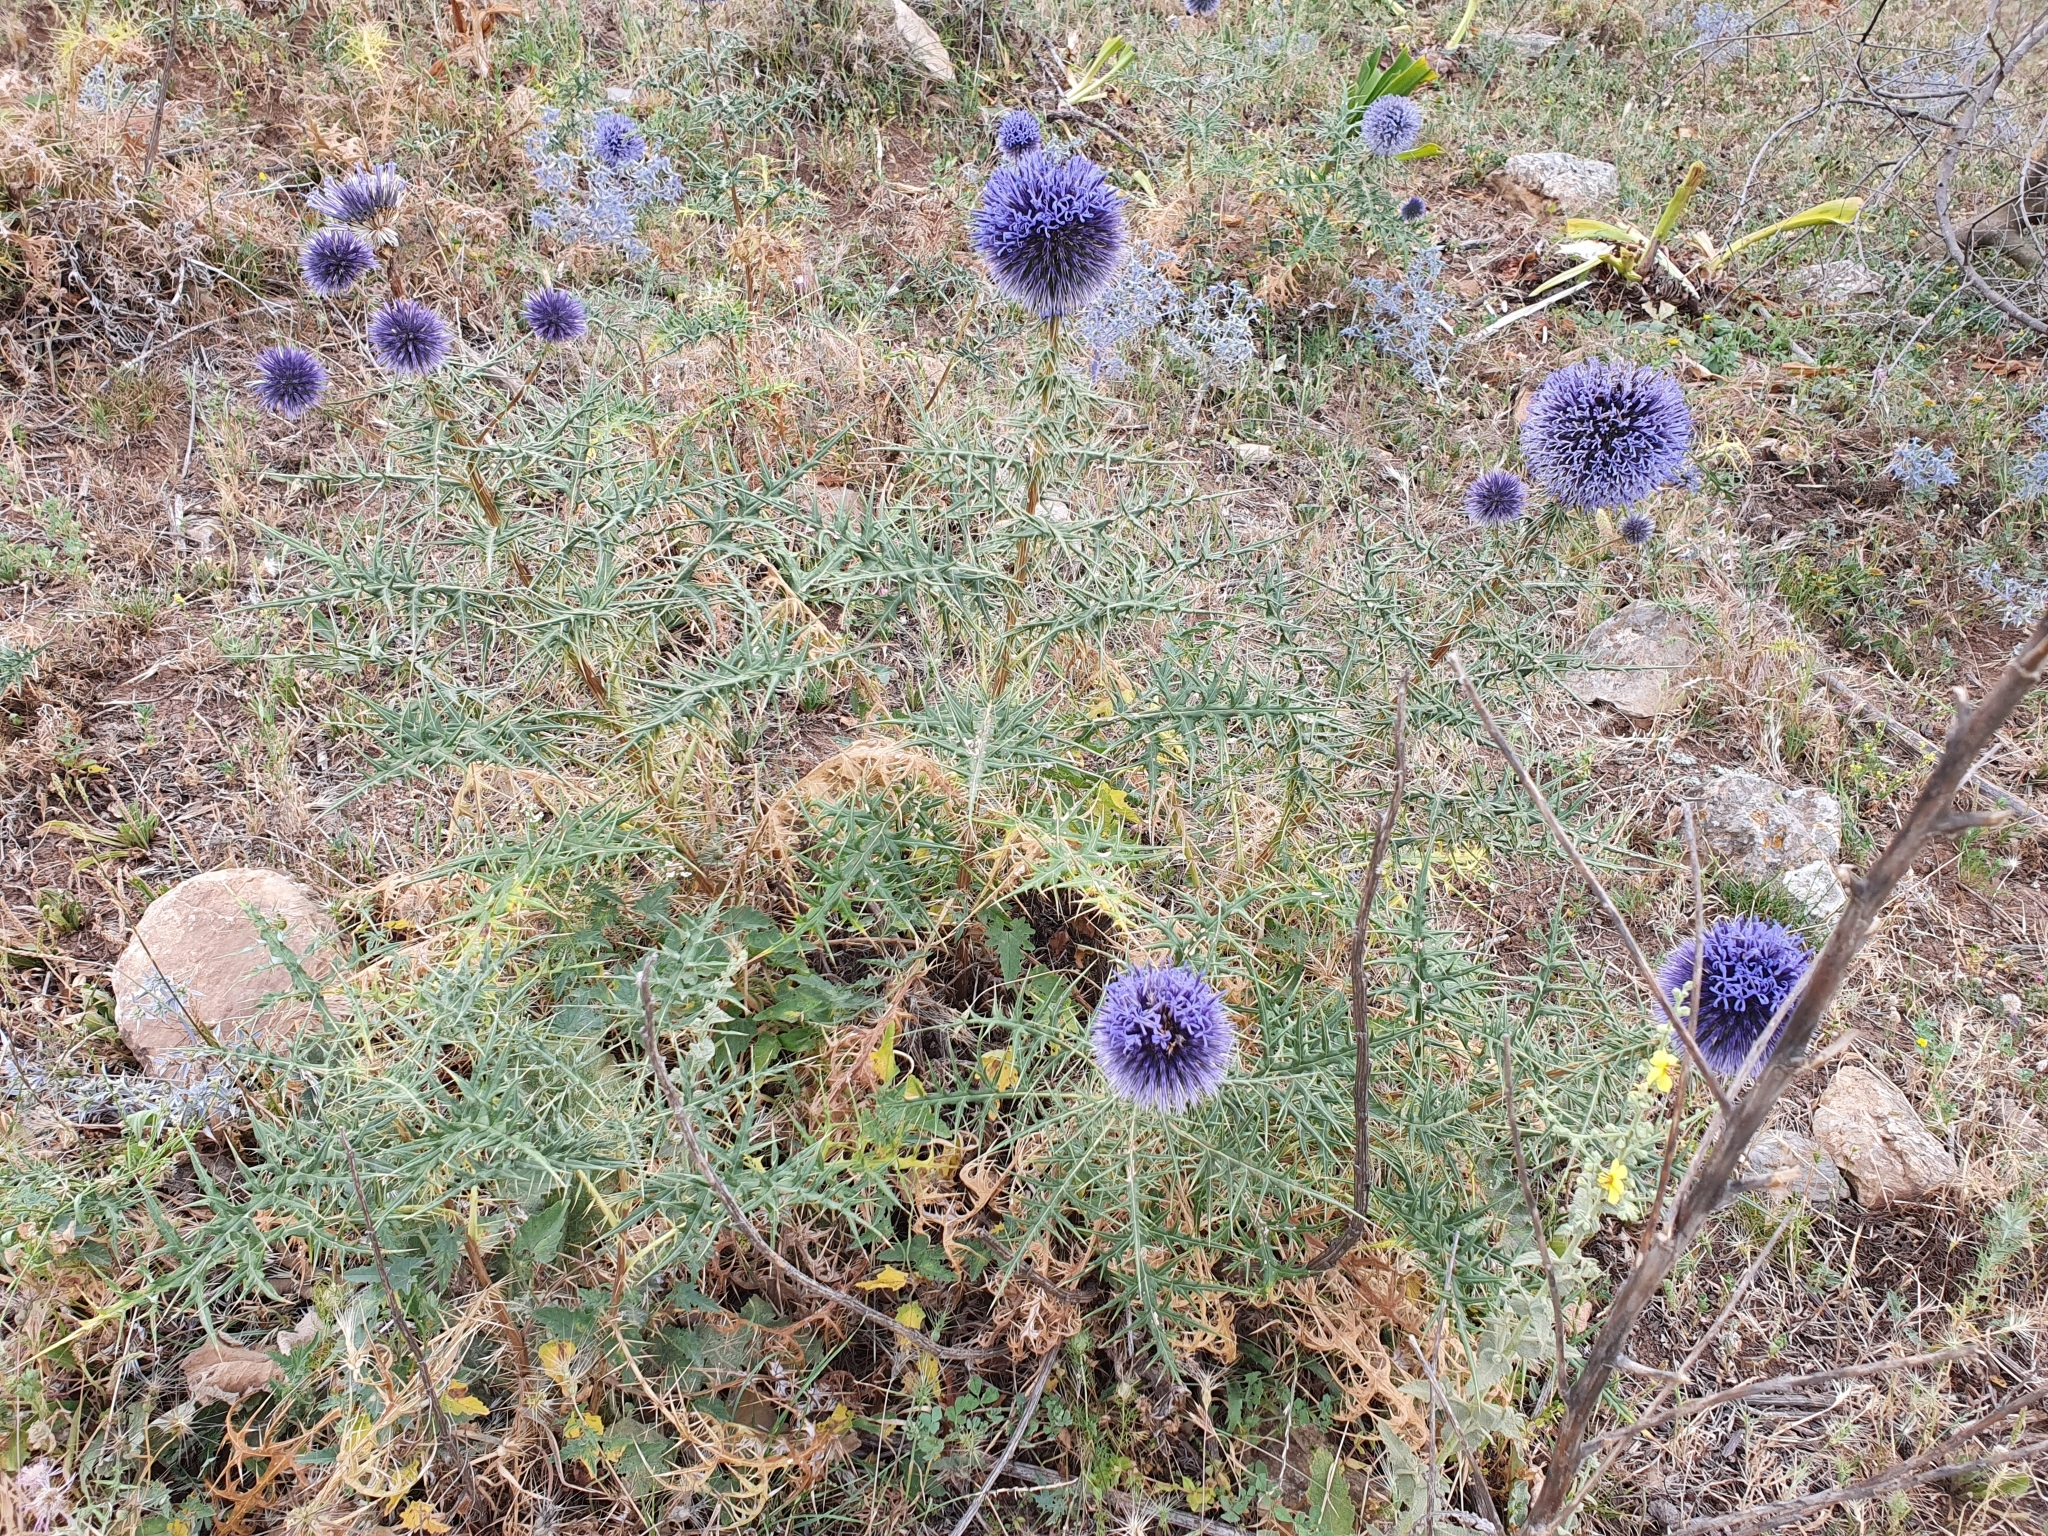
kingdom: Plantae
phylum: Tracheophyta
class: Magnoliopsida
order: Asterales
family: Asteraceae
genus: Echinops
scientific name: Echinops bovei
